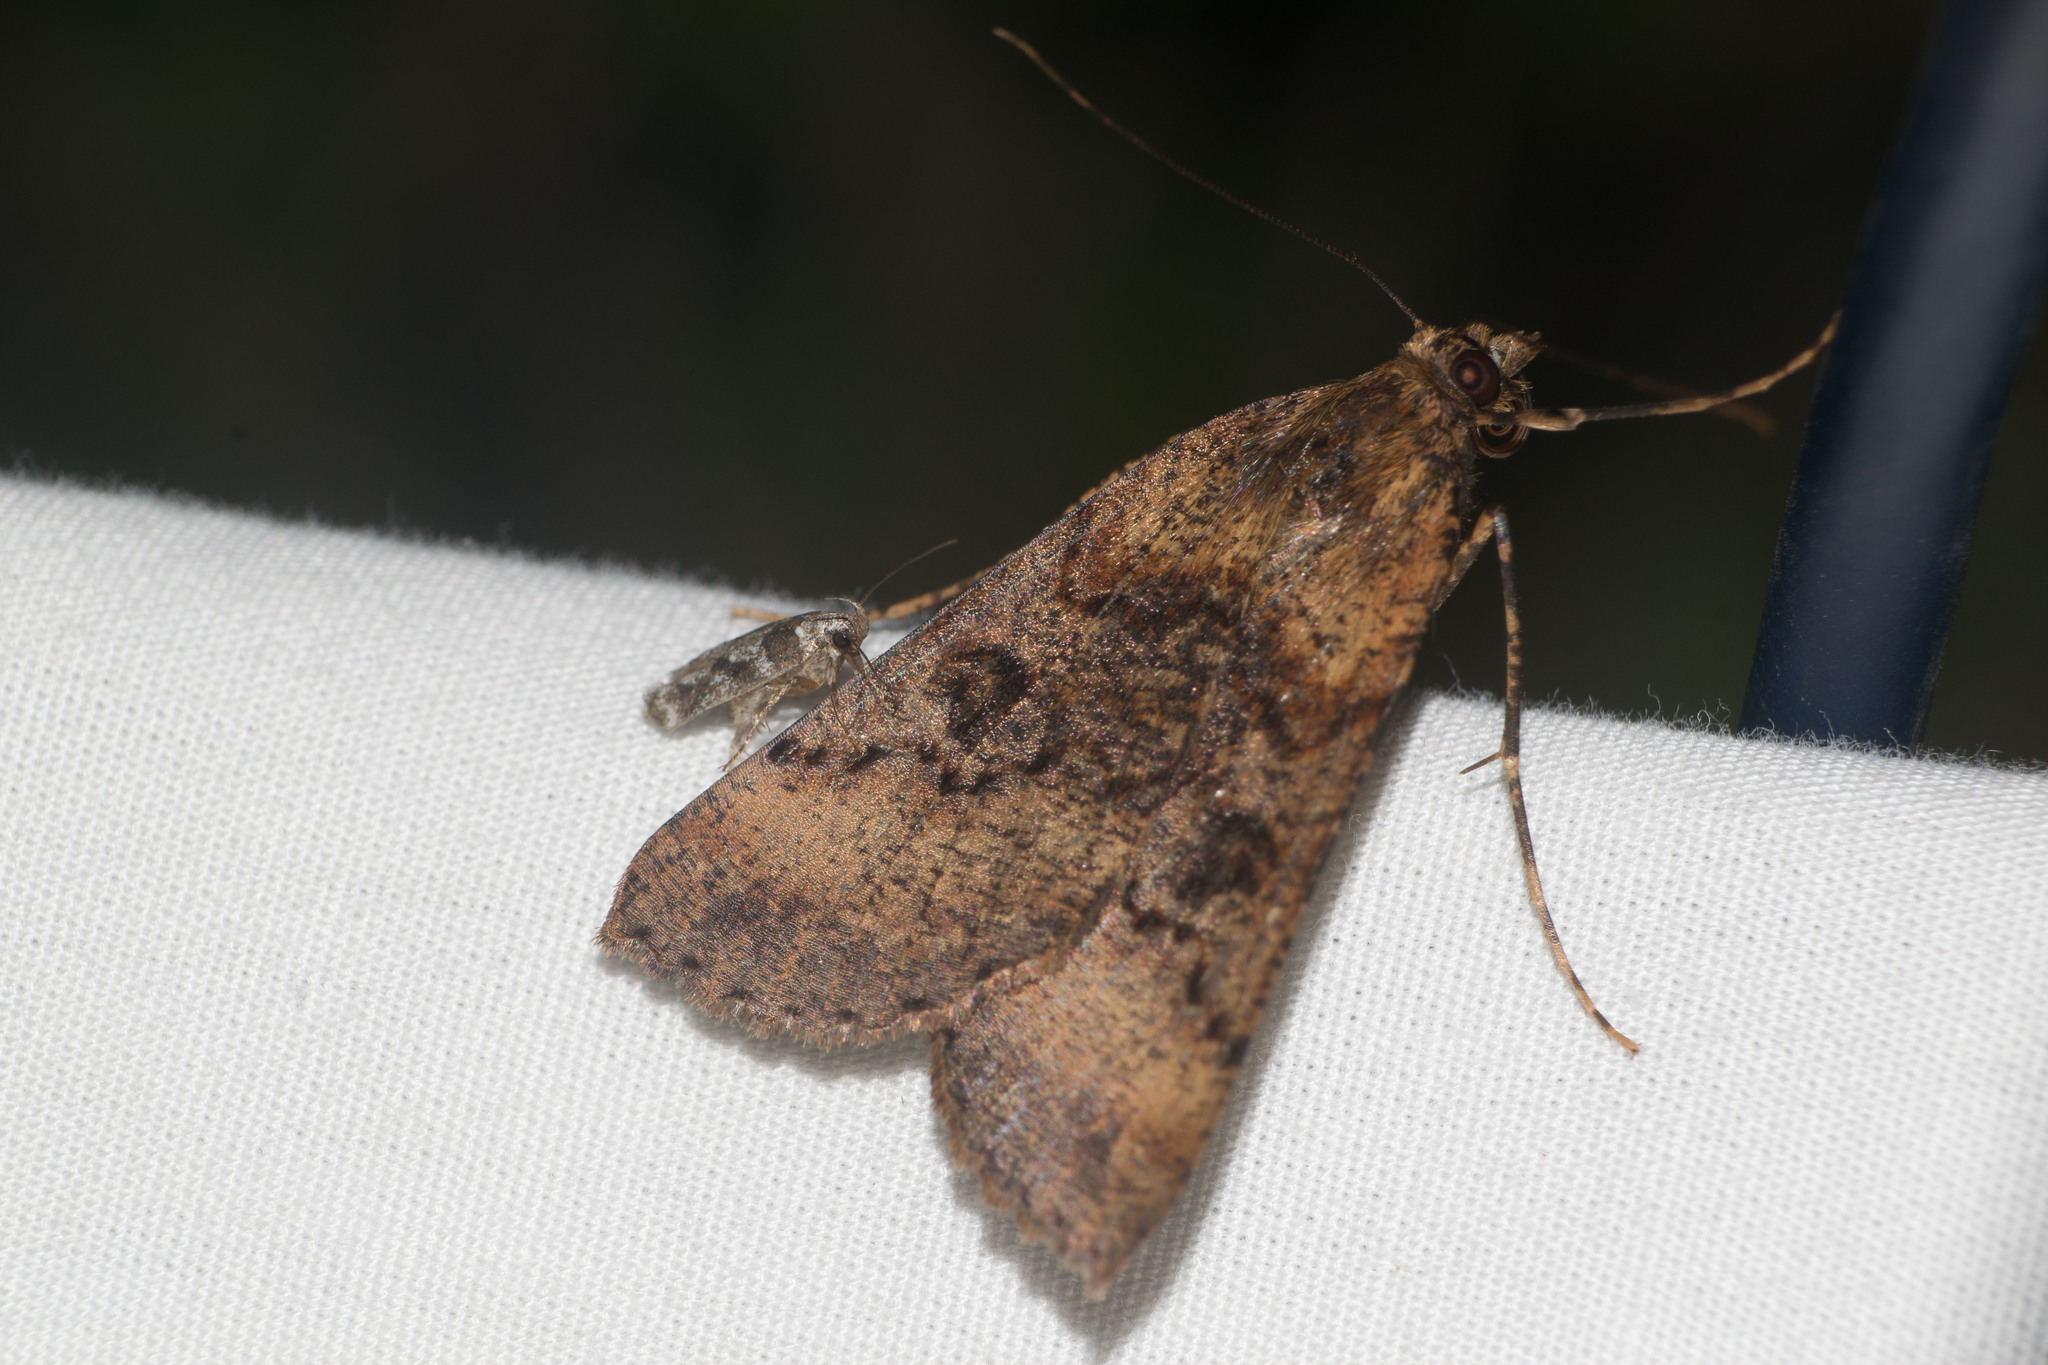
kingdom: Animalia
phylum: Arthropoda
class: Insecta
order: Lepidoptera
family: Geometridae
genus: Scotorythra
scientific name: Scotorythra rara
